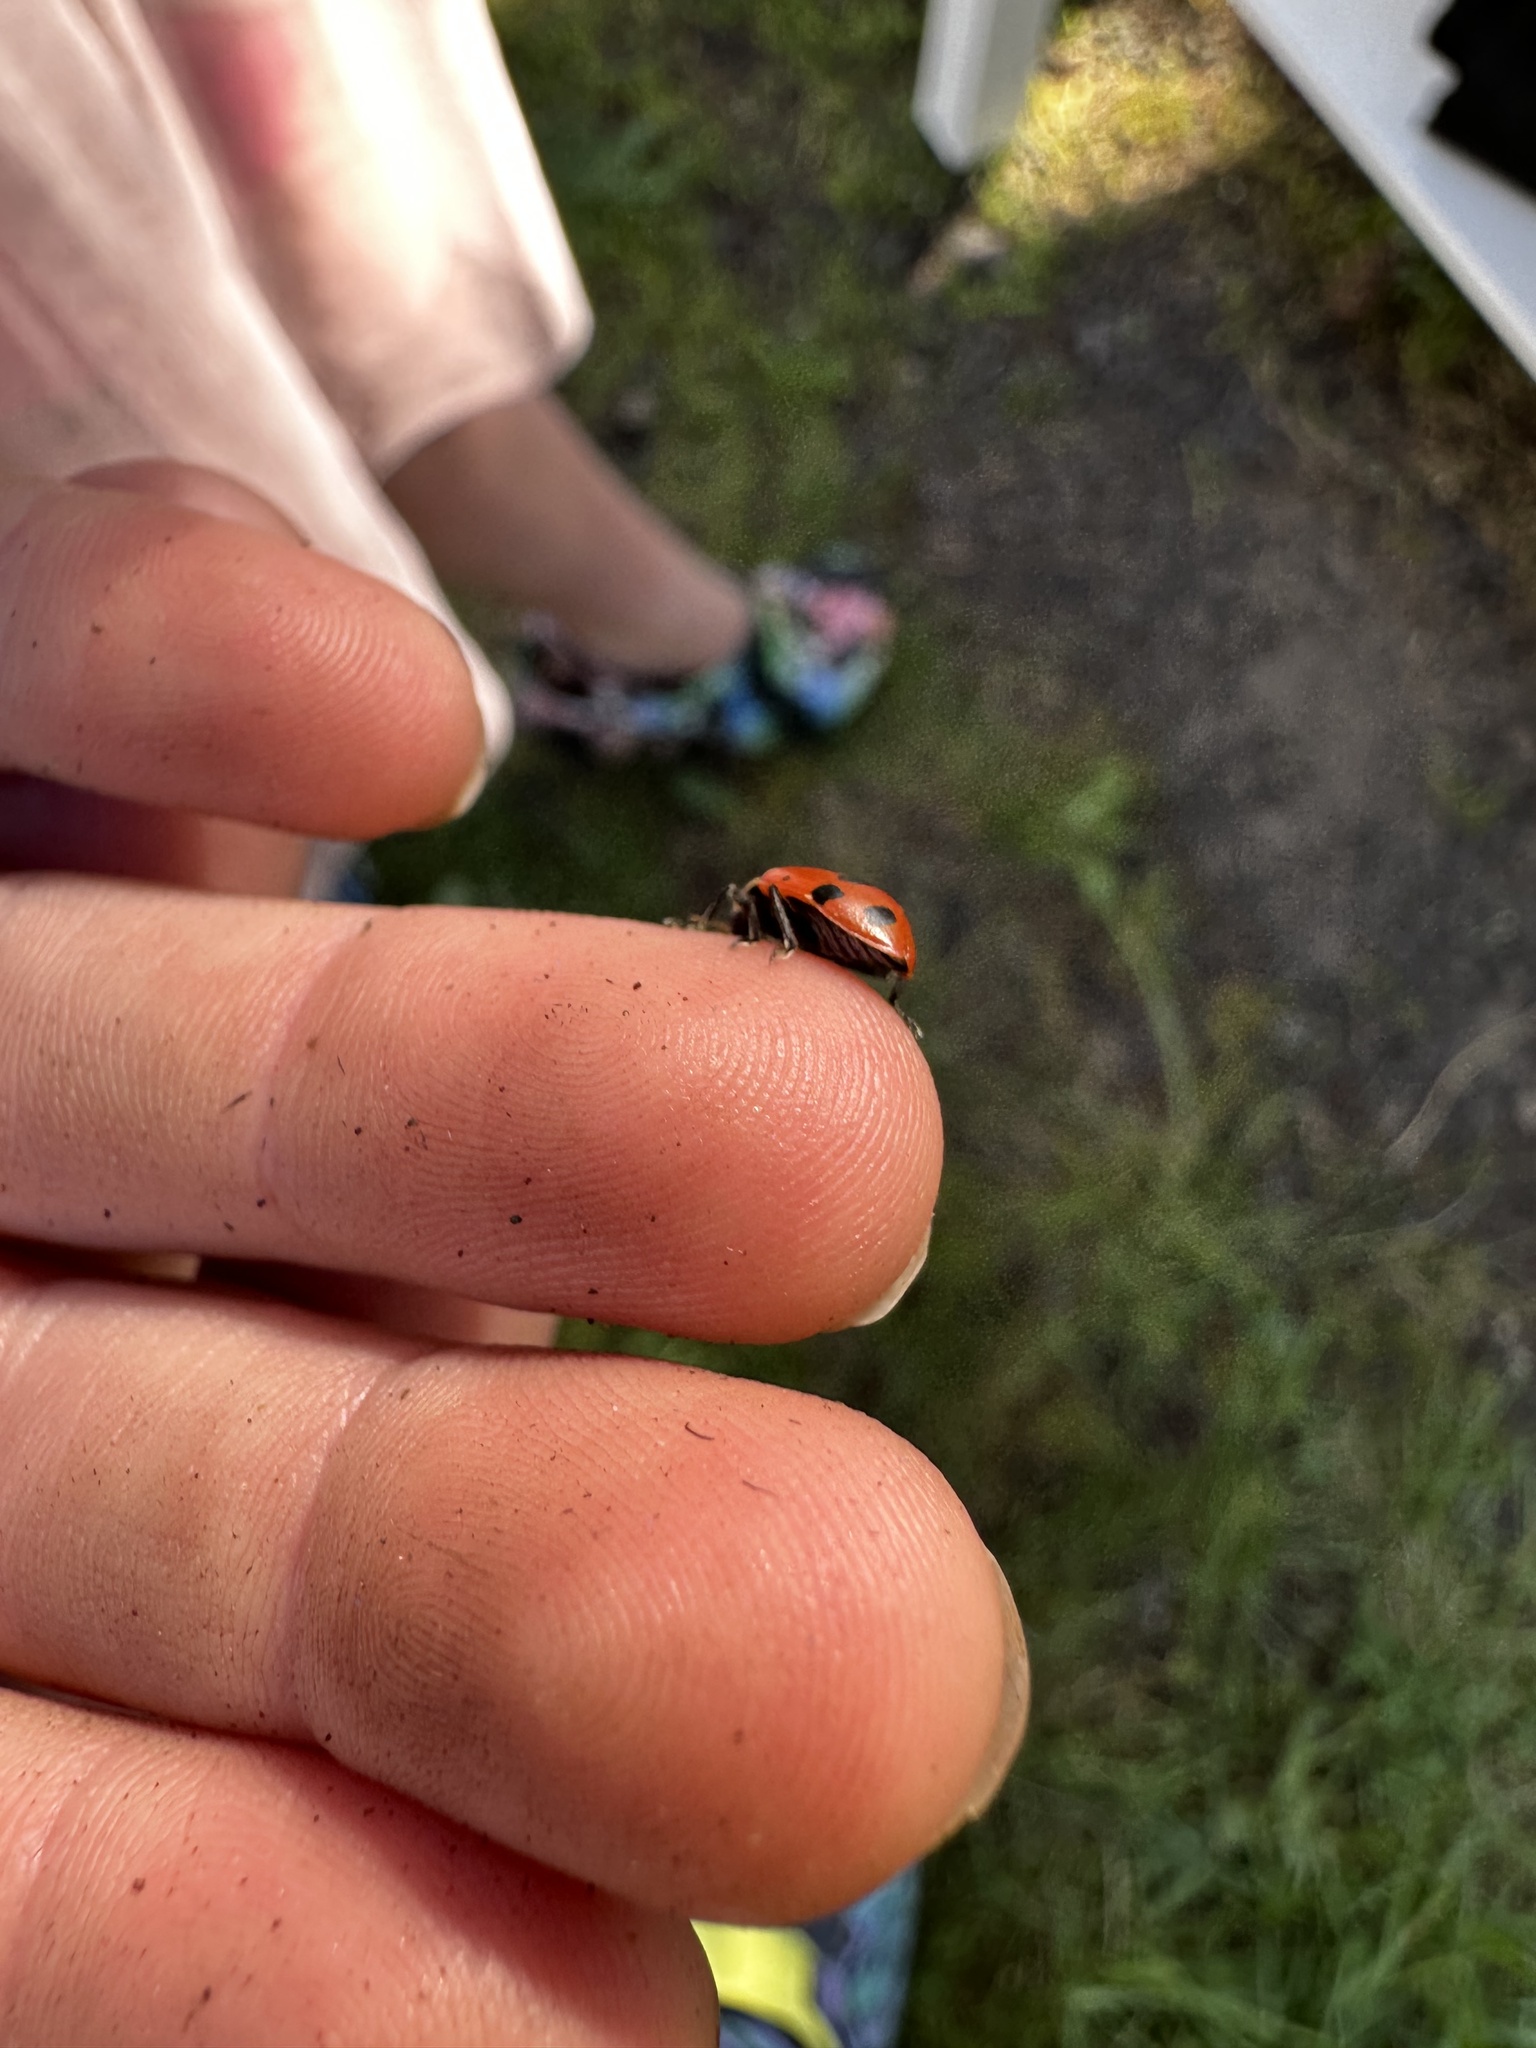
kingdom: Animalia
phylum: Arthropoda
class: Insecta
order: Coleoptera
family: Coccinellidae
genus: Hippodamia
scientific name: Hippodamia convergens
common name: Convergent lady beetle
